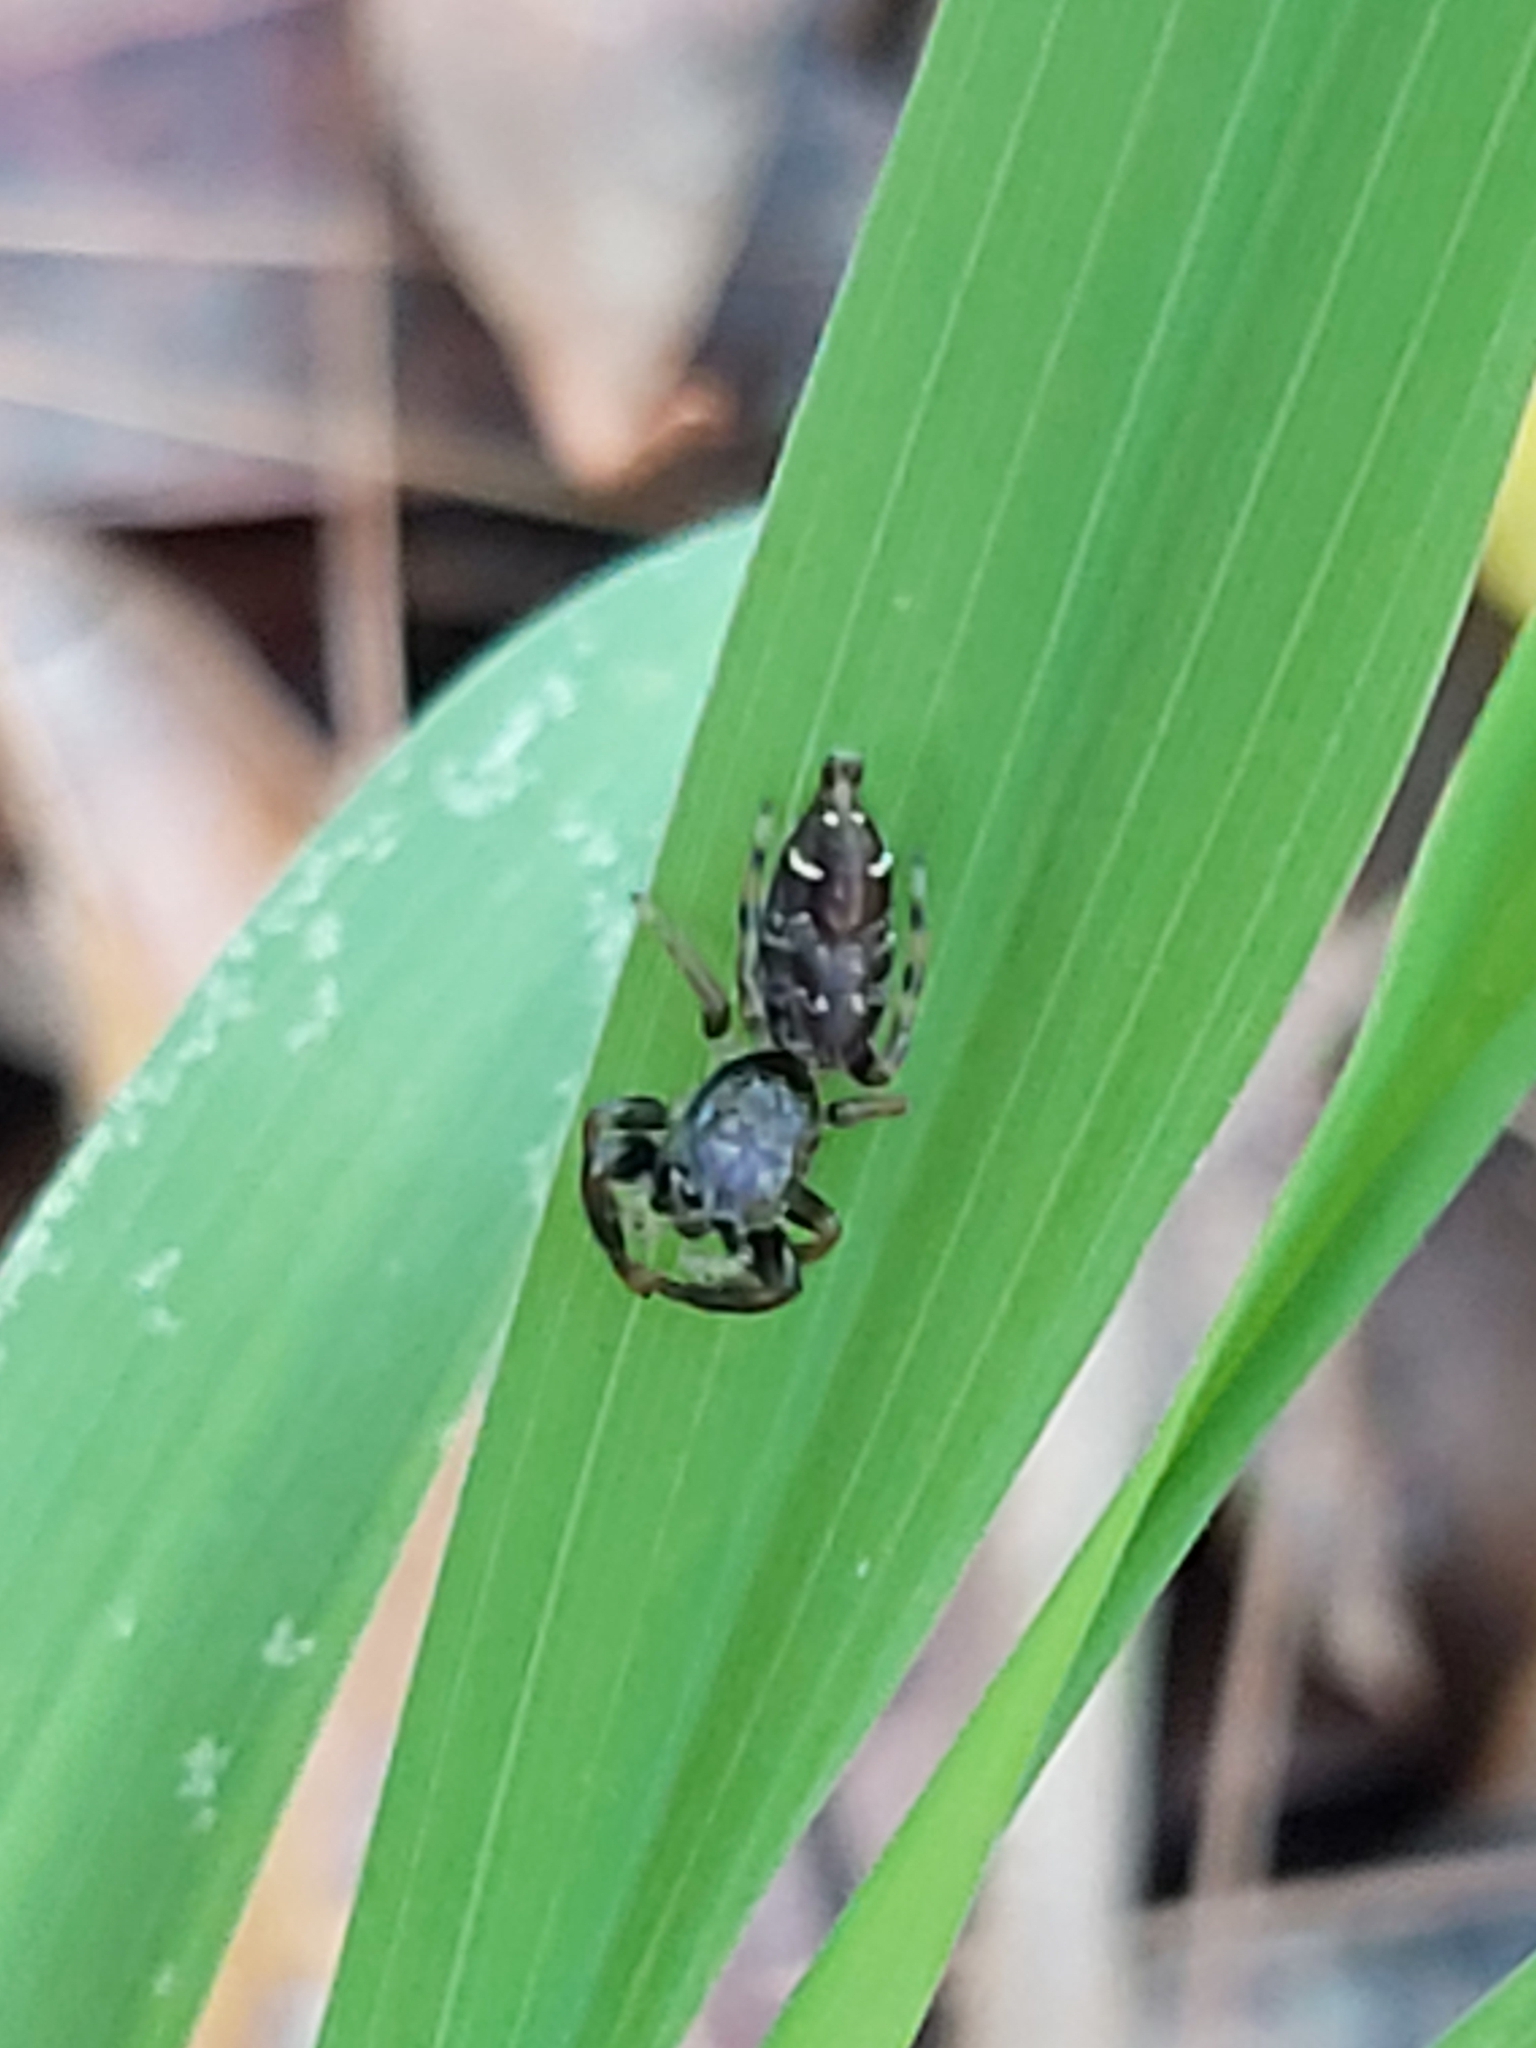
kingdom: Animalia
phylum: Arthropoda
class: Arachnida
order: Araneae
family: Salticidae
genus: Pungalina
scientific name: Pungalina plurilineata
